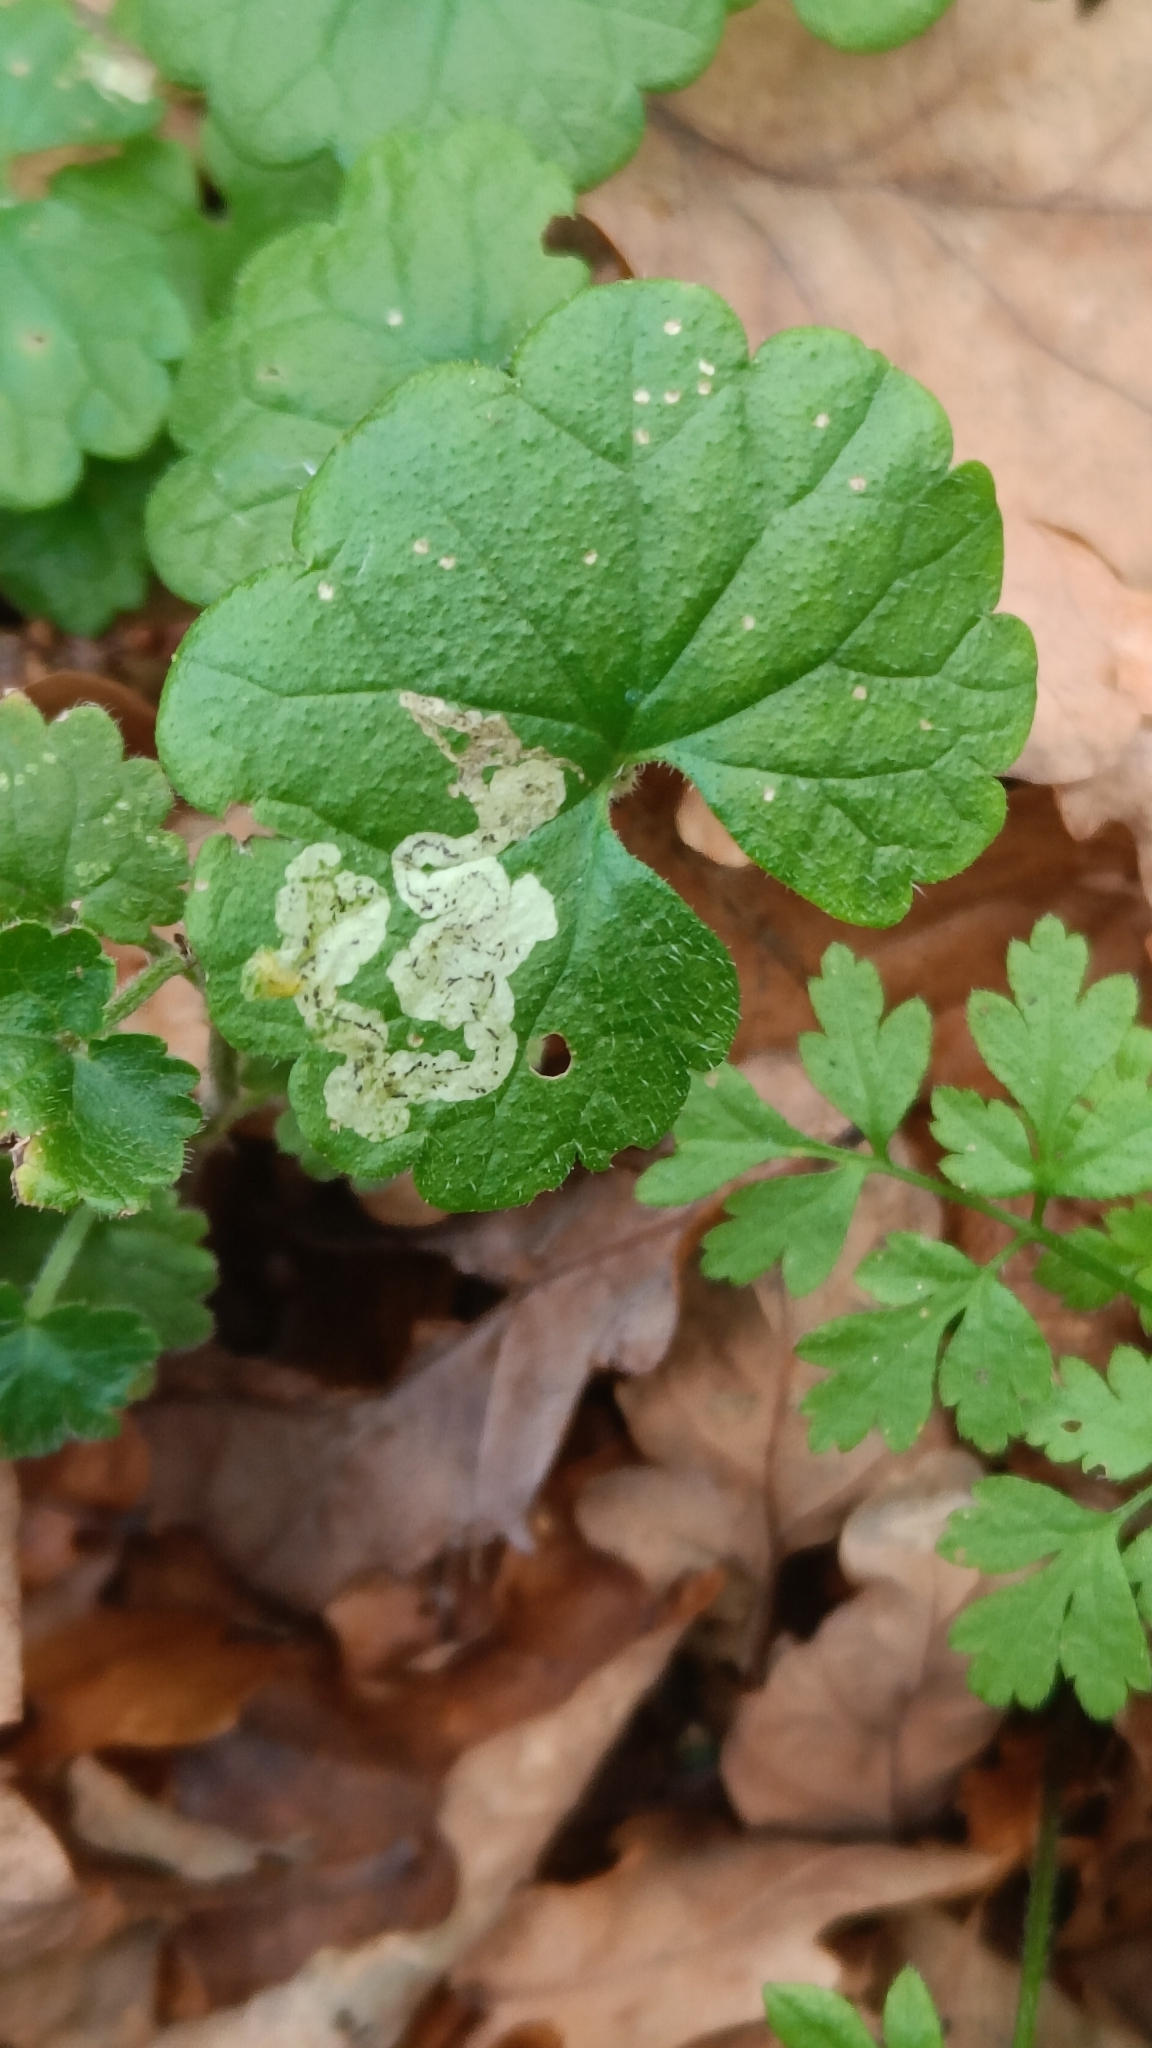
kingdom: Animalia
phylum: Arthropoda
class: Insecta
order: Diptera
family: Agromyzidae
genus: Phytomyza
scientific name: Phytomyza glechomae
